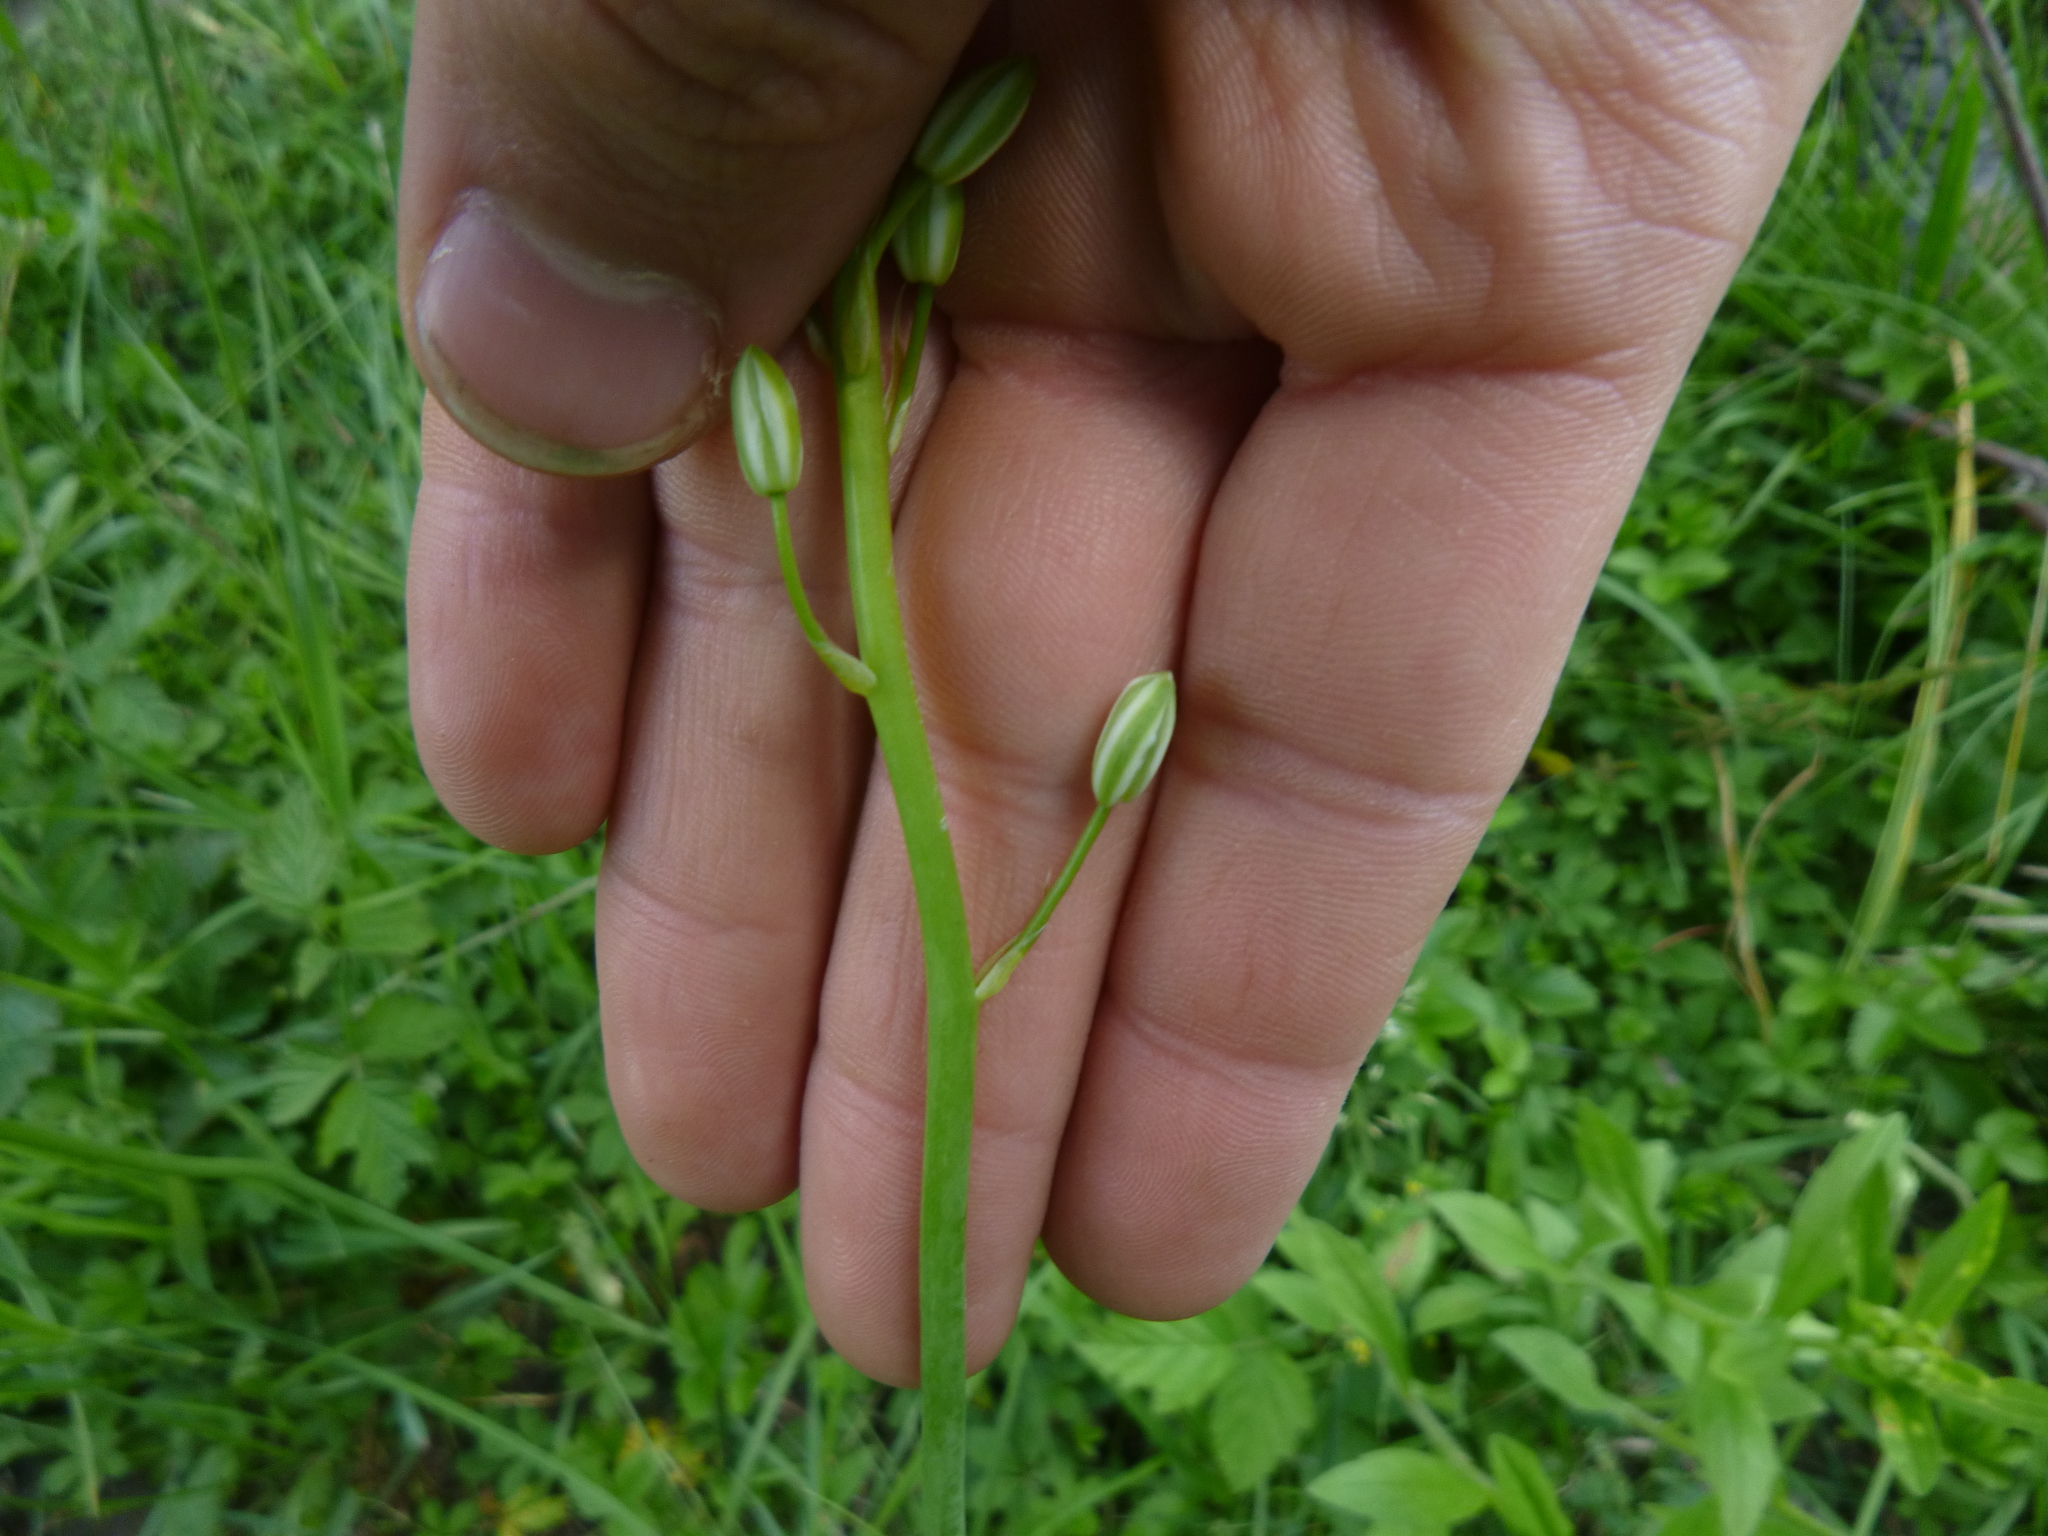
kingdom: Plantae
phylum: Tracheophyta
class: Liliopsida
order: Asparagales
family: Asparagaceae
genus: Ornithogalum
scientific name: Ornithogalum sphaerocarpum
